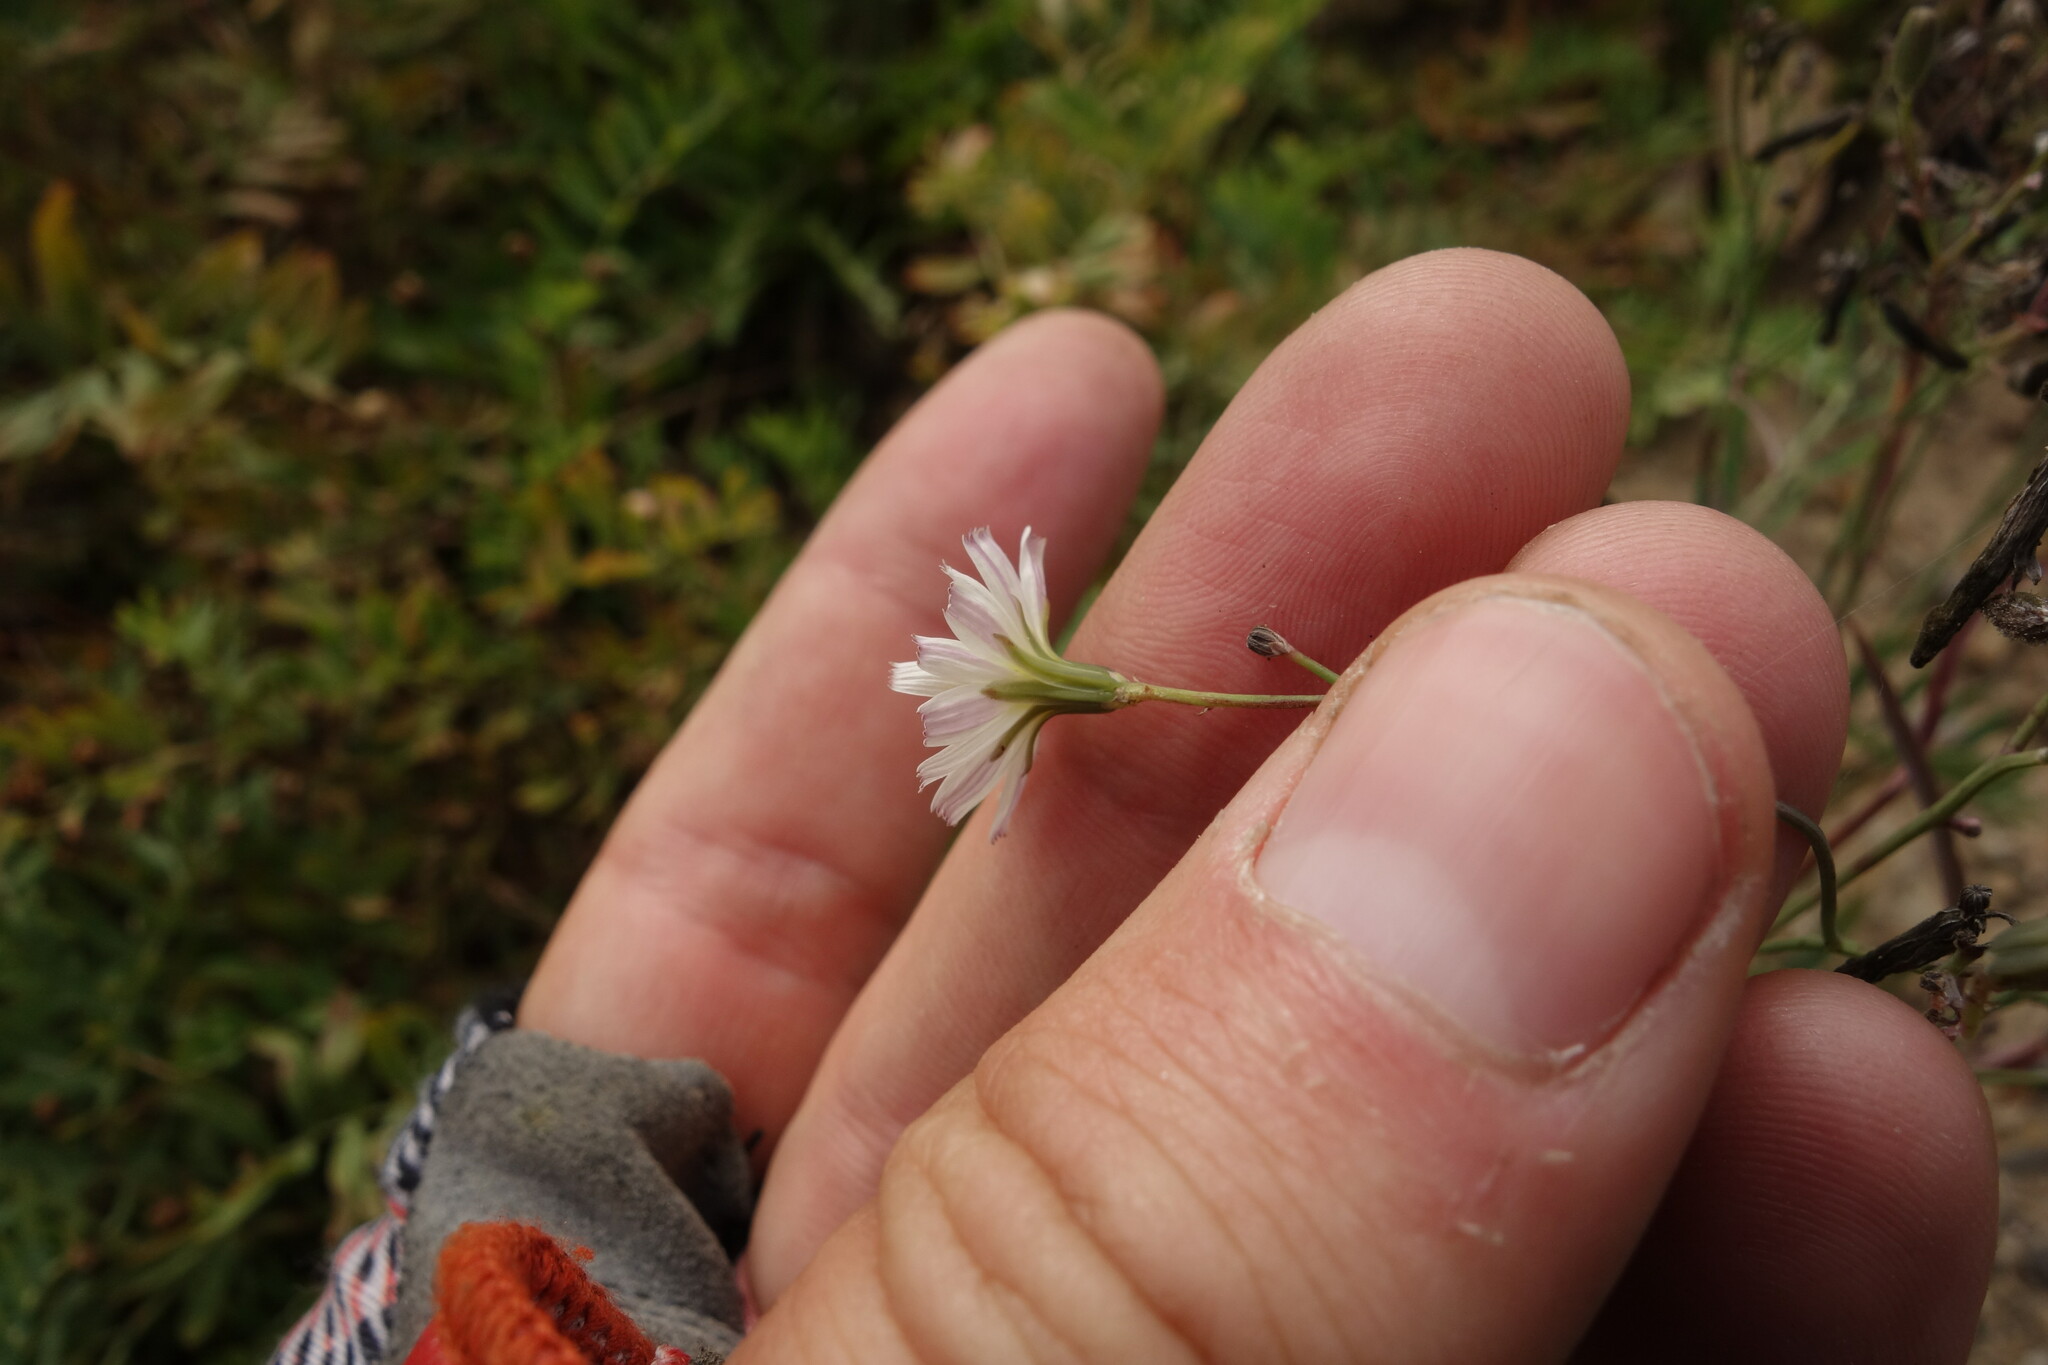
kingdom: Plantae
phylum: Tracheophyta
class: Magnoliopsida
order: Asterales
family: Asteraceae
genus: Ixeris
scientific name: Ixeris chinensis
